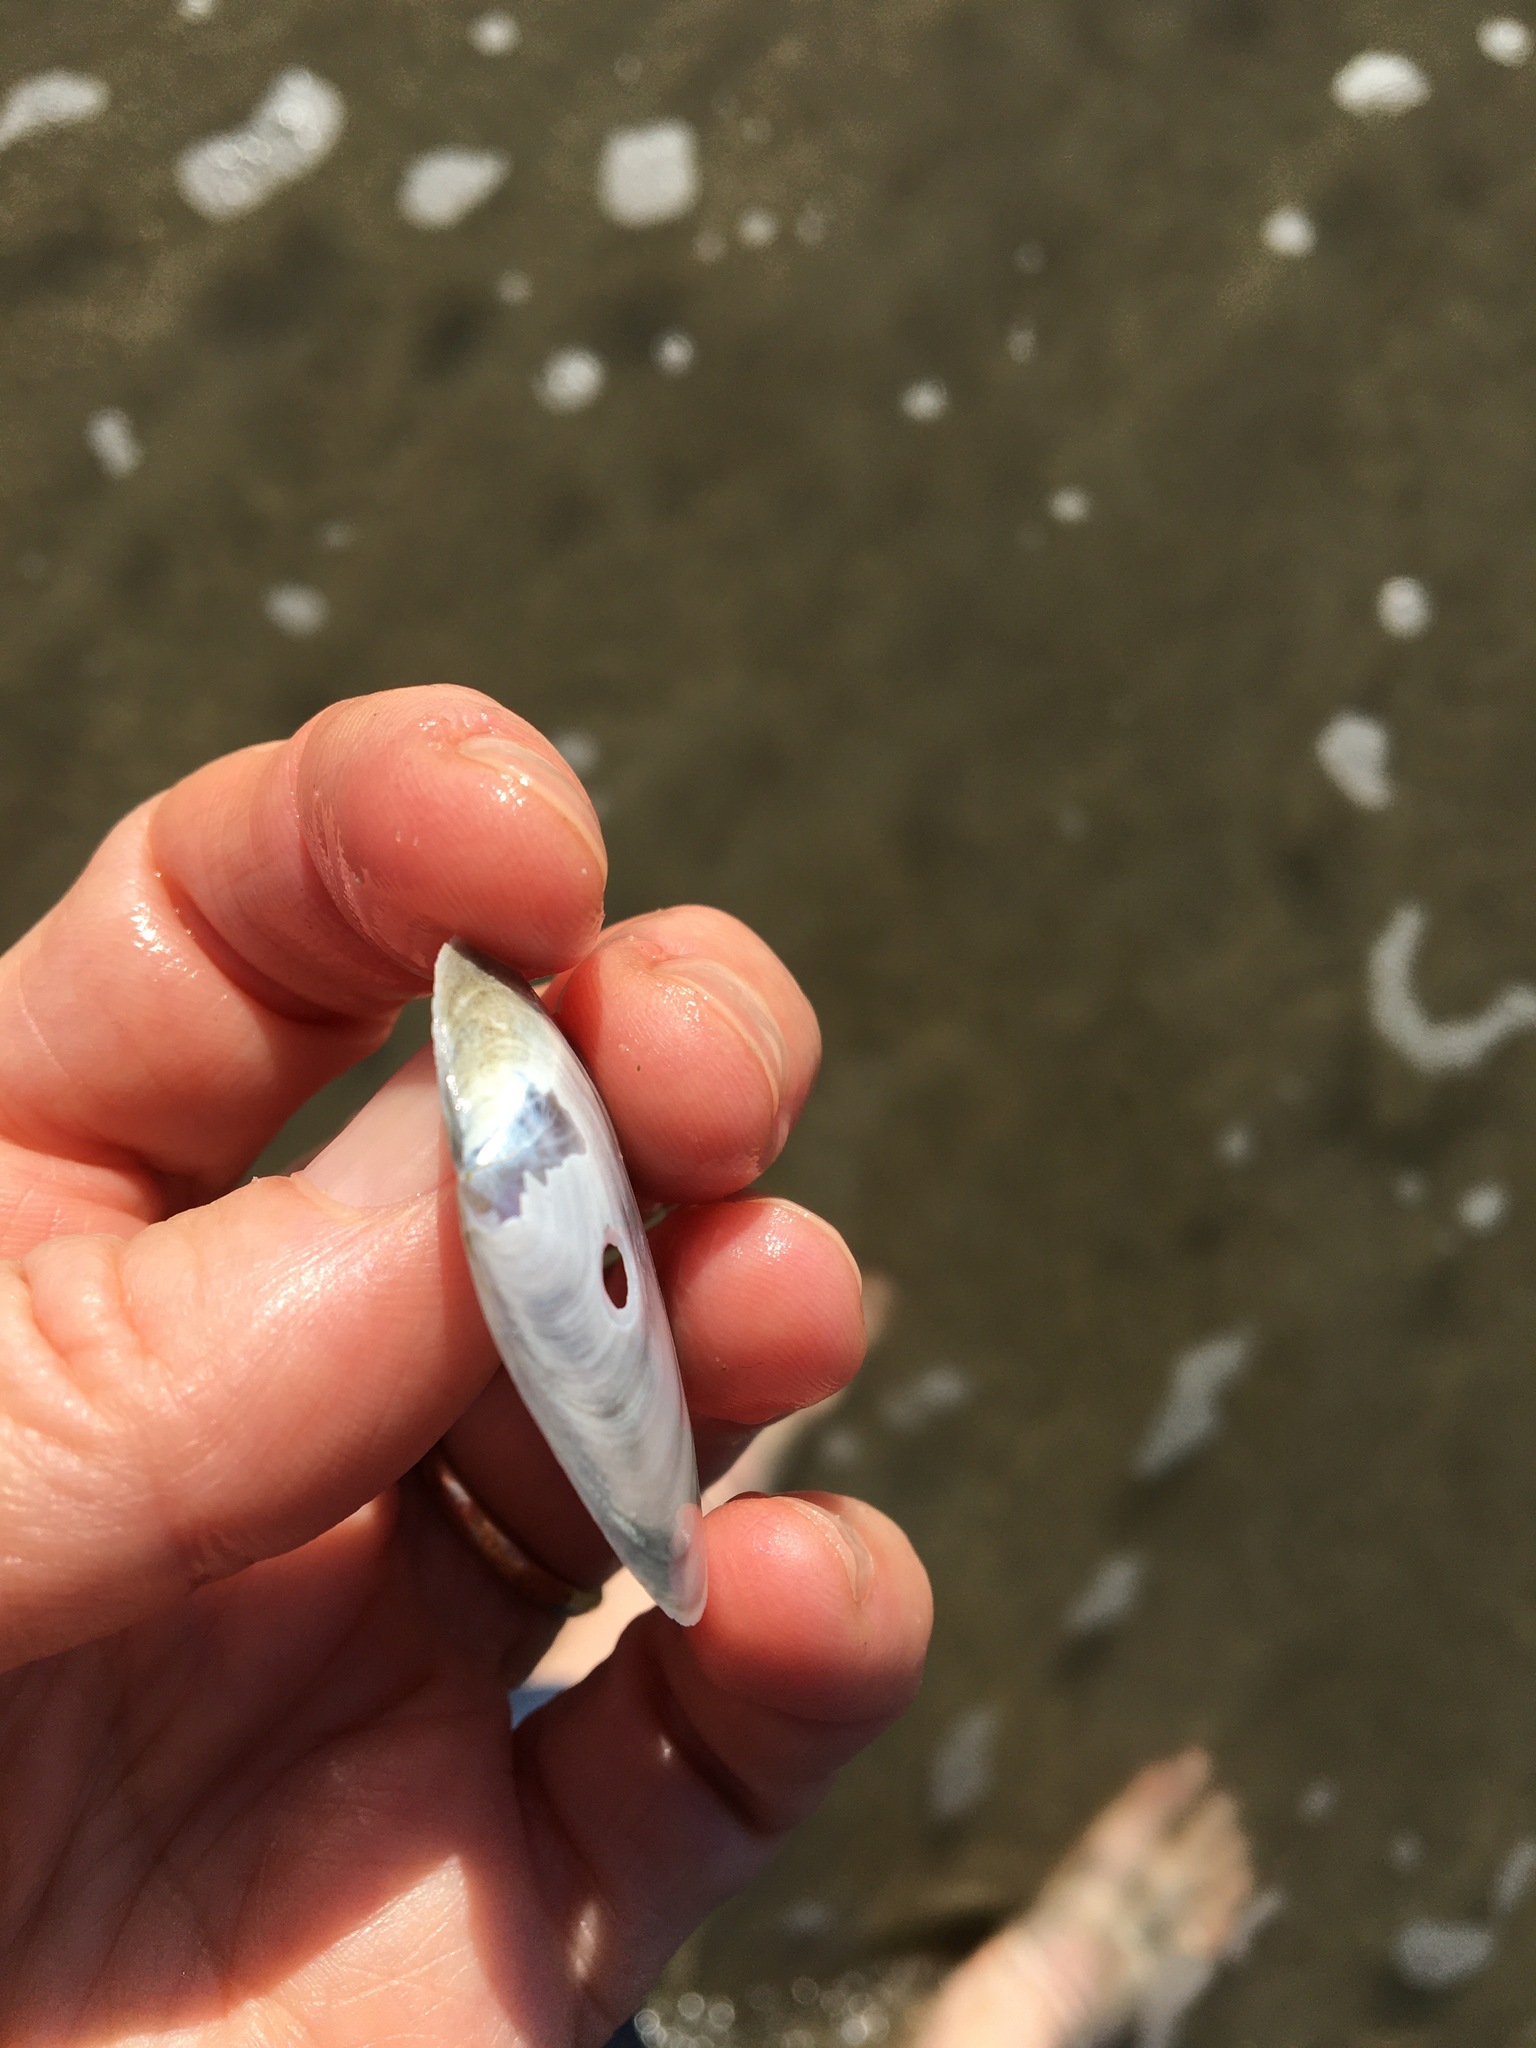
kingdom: Animalia
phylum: Mollusca
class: Bivalvia
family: Periplomatidae
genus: Periploma
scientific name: Periploma planiusculum
